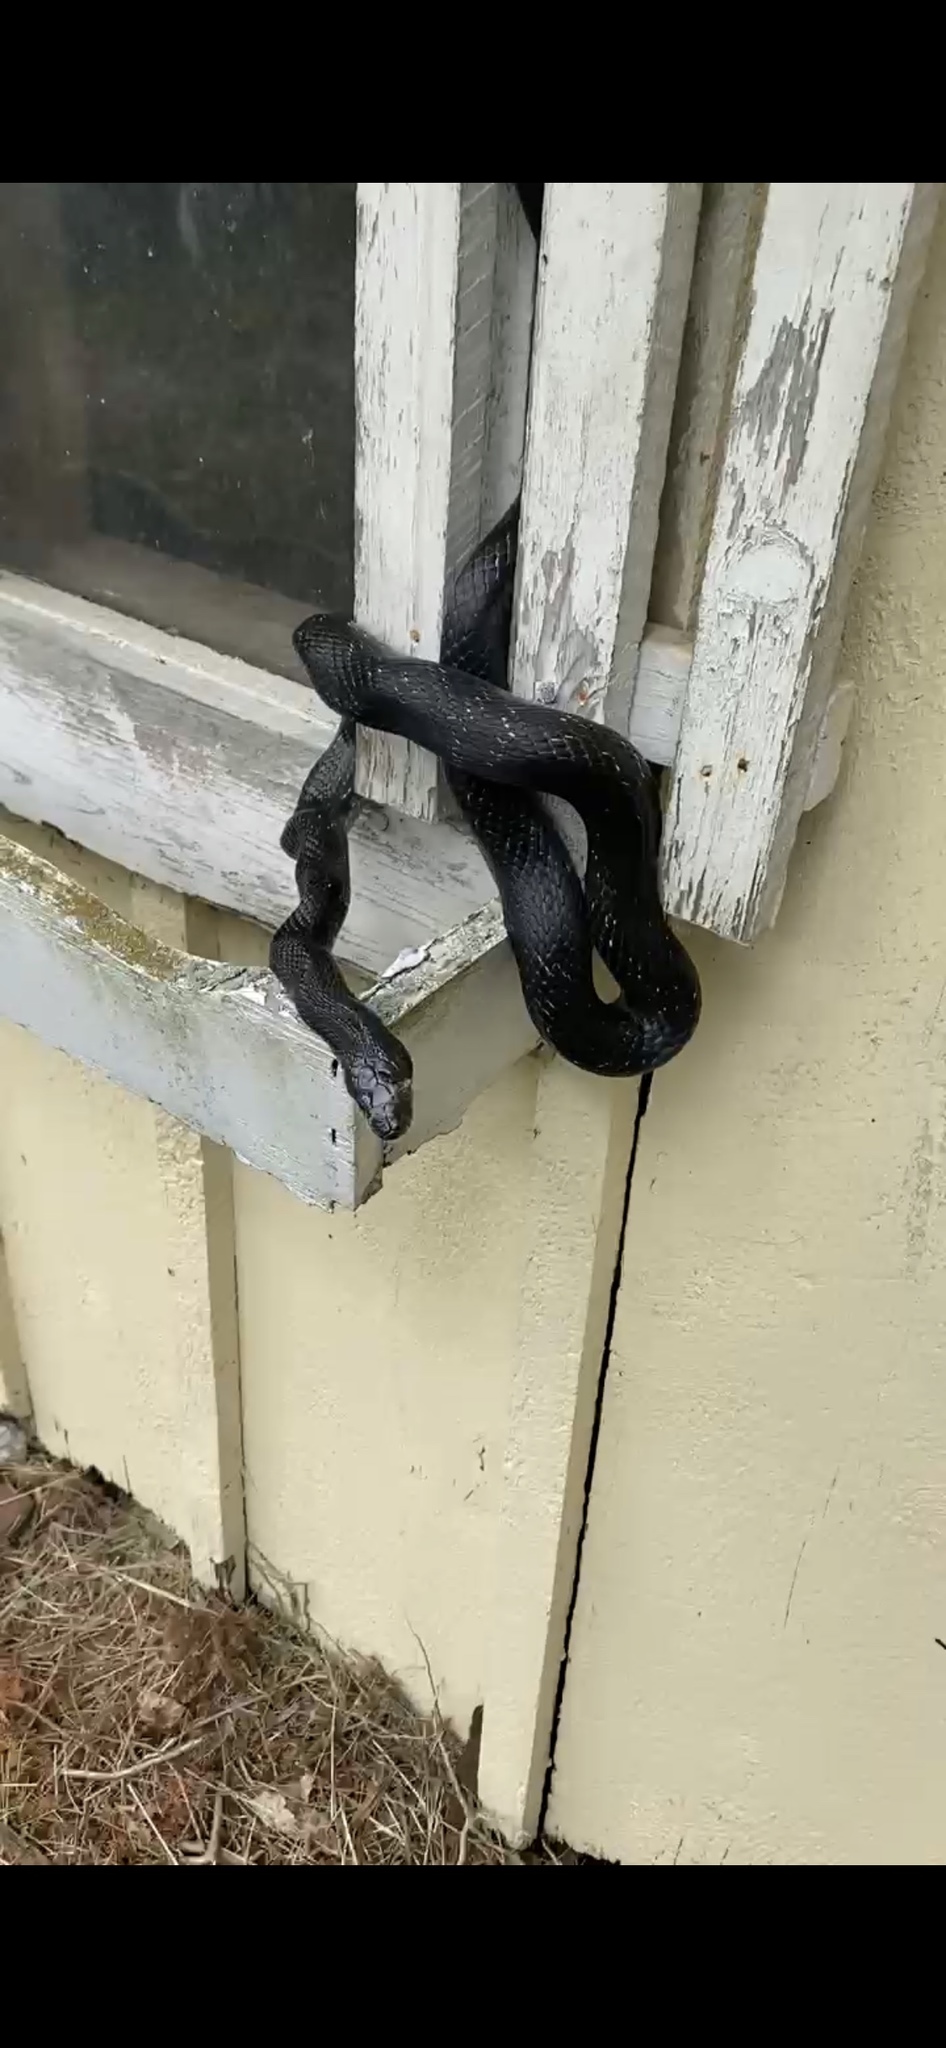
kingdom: Animalia
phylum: Chordata
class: Squamata
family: Colubridae
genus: Pantherophis
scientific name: Pantherophis alleghaniensis
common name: Eastern rat snake
